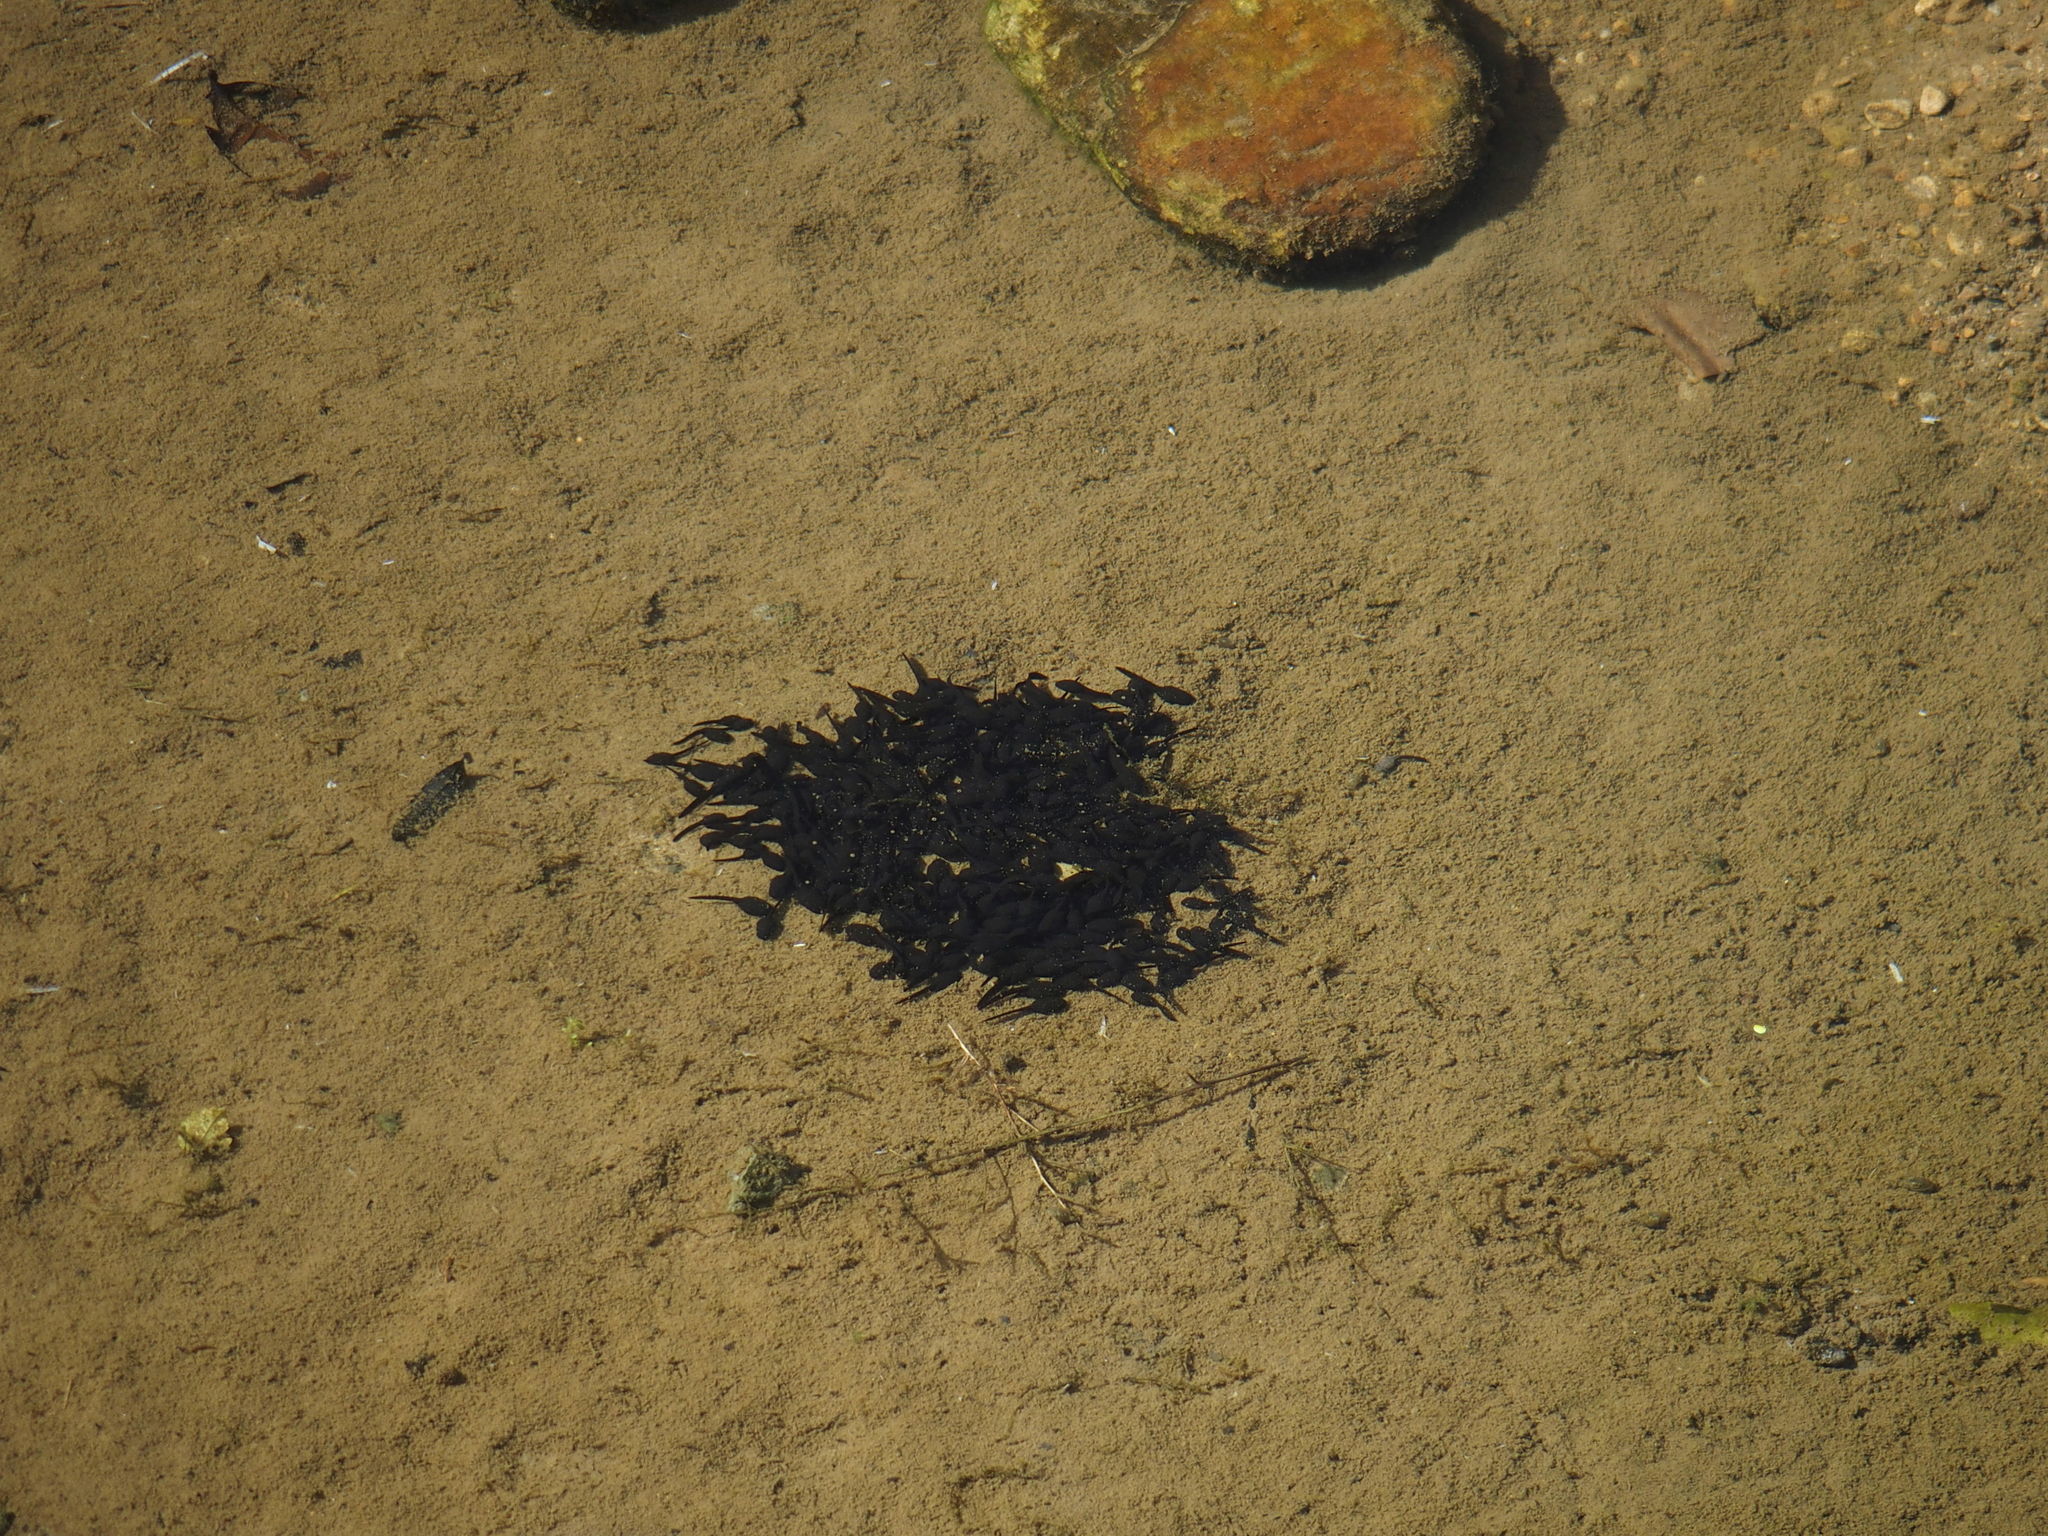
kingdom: Animalia
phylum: Chordata
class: Amphibia
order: Anura
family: Bufonidae
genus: Bufo
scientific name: Bufo bankorensis
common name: Bankor toad
